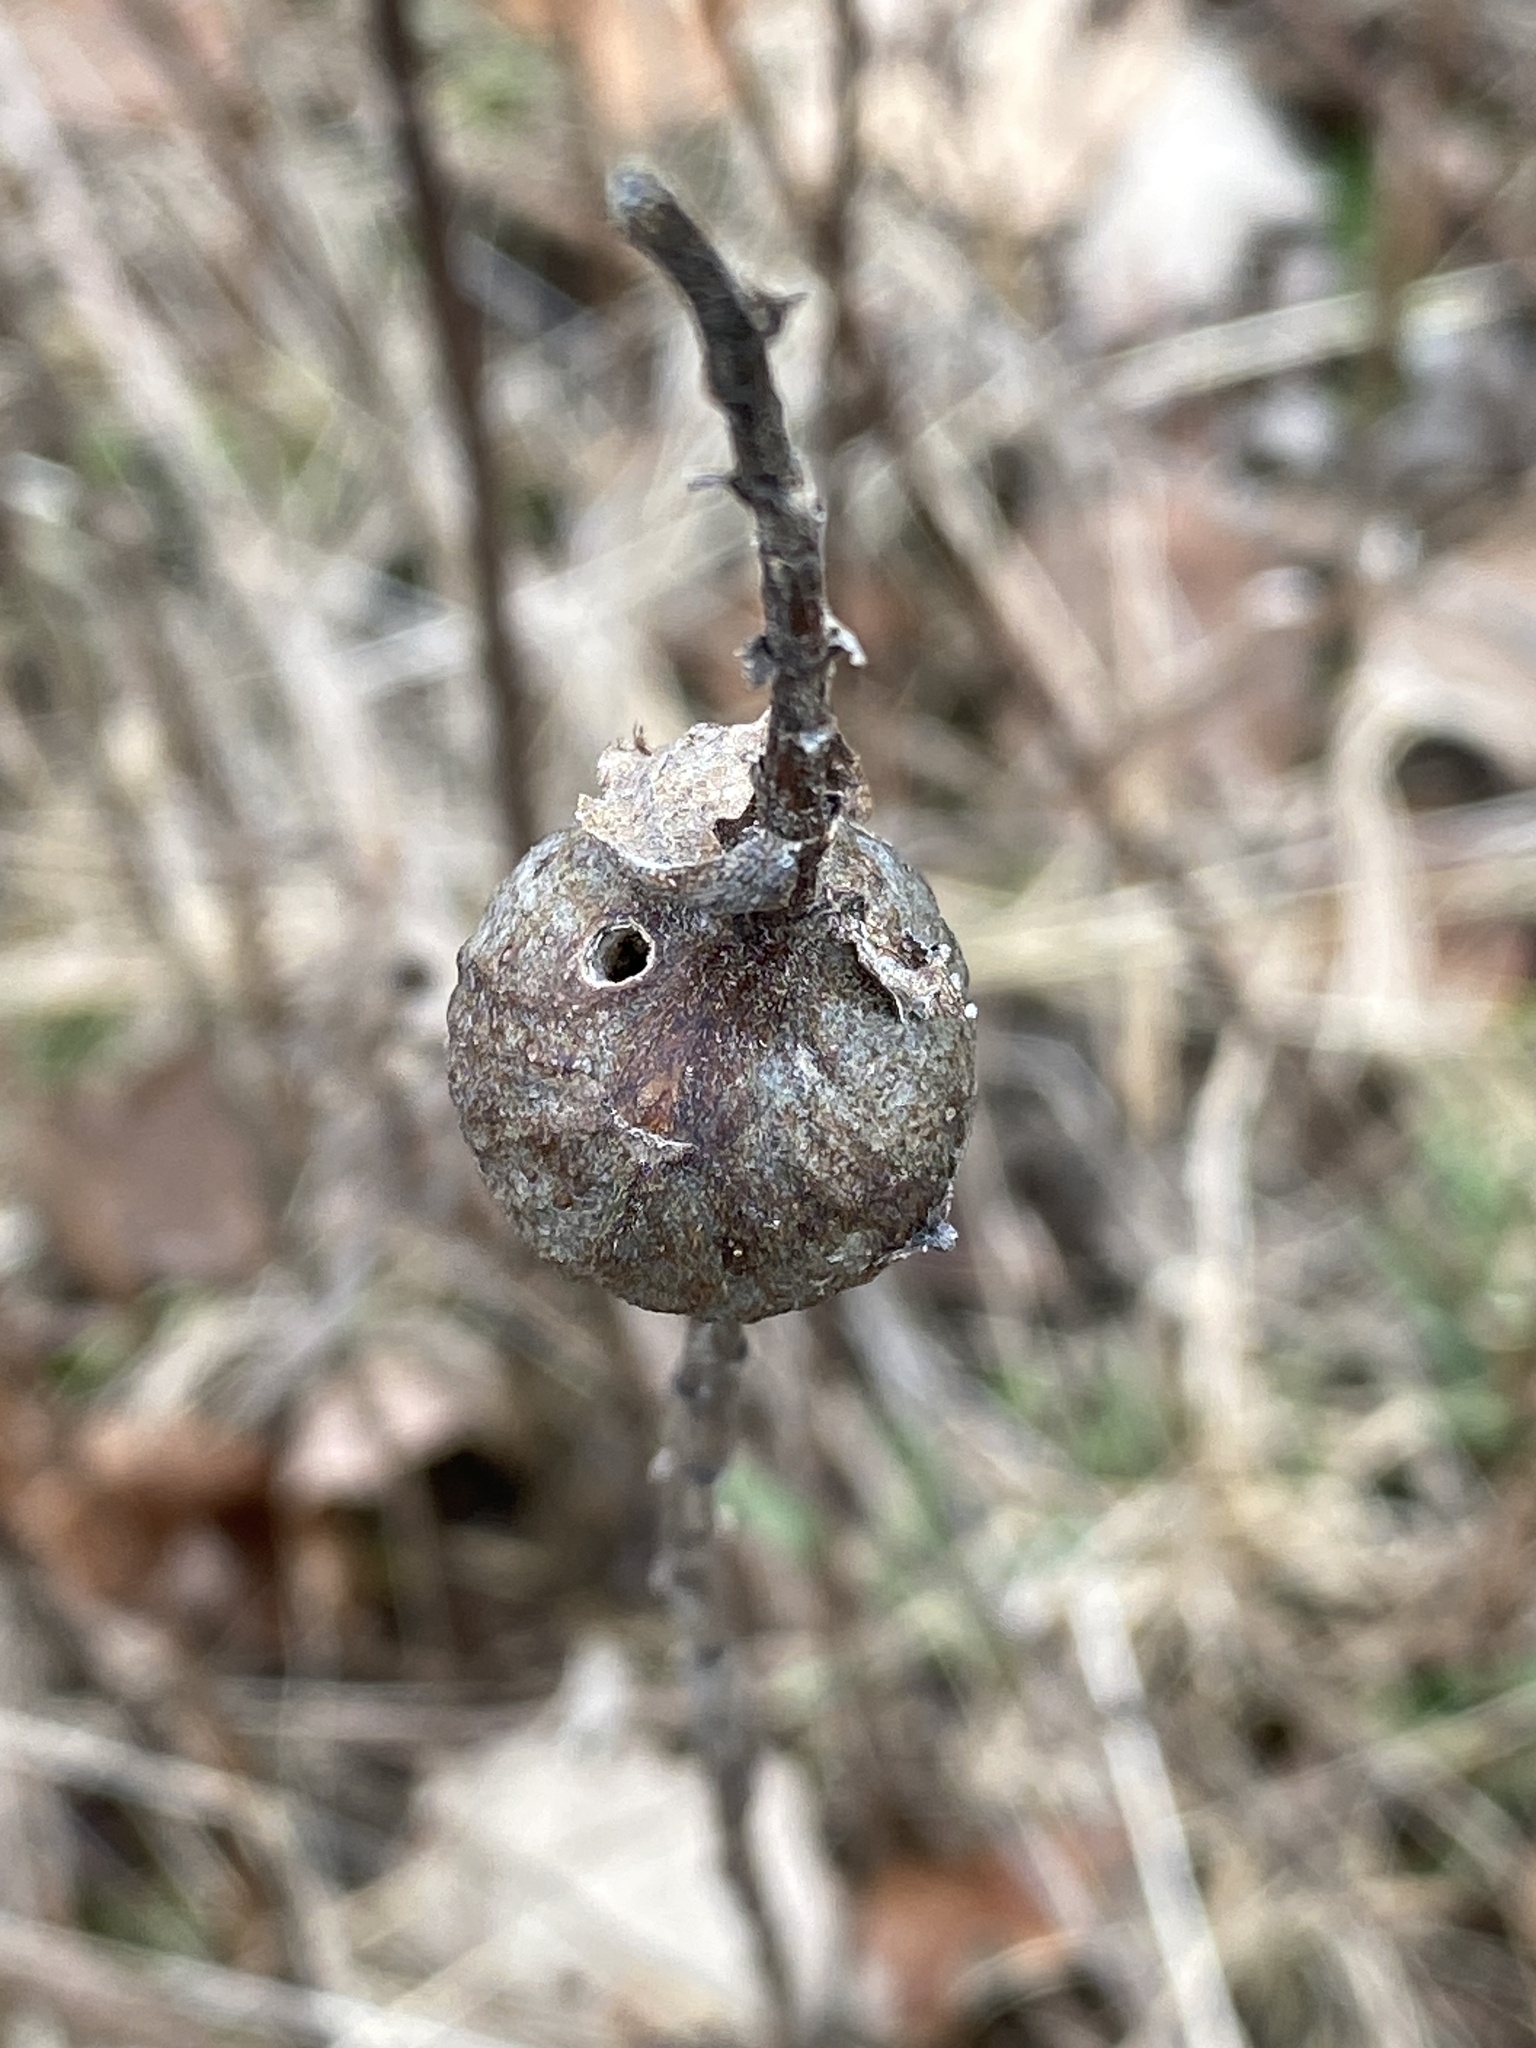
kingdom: Animalia
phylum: Arthropoda
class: Insecta
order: Diptera
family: Tephritidae
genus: Eurosta
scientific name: Eurosta solidaginis
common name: Goldenrod gall fly
